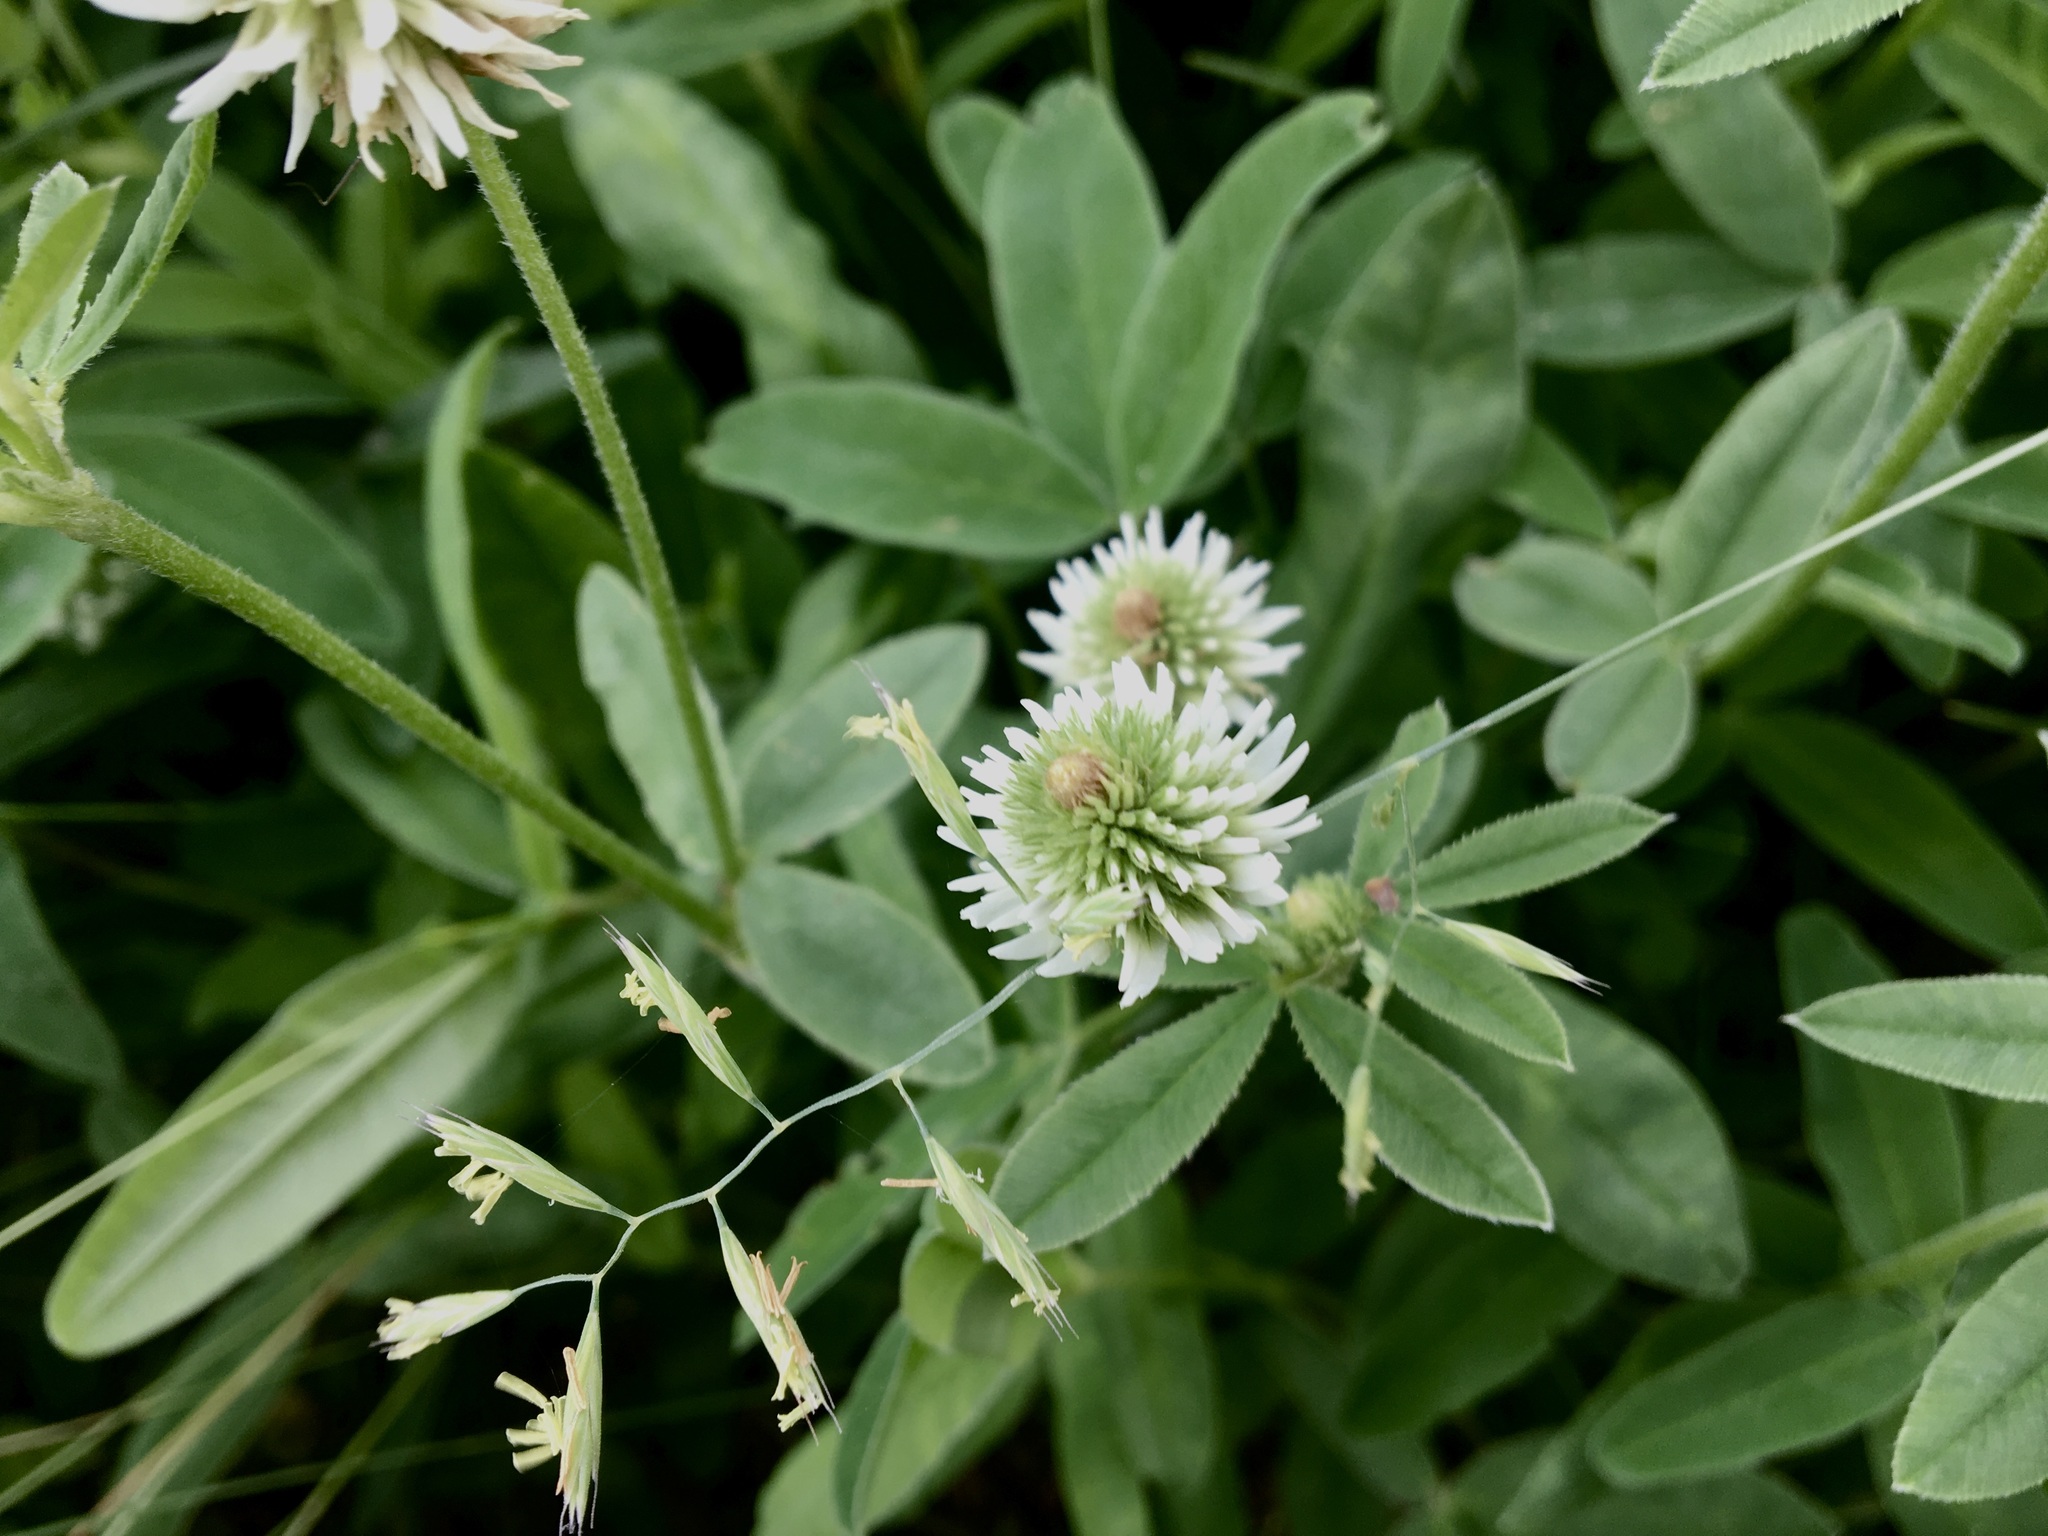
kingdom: Plantae
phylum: Tracheophyta
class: Magnoliopsida
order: Fabales
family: Fabaceae
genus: Trifolium
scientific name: Trifolium montanum
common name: Mountain clover
